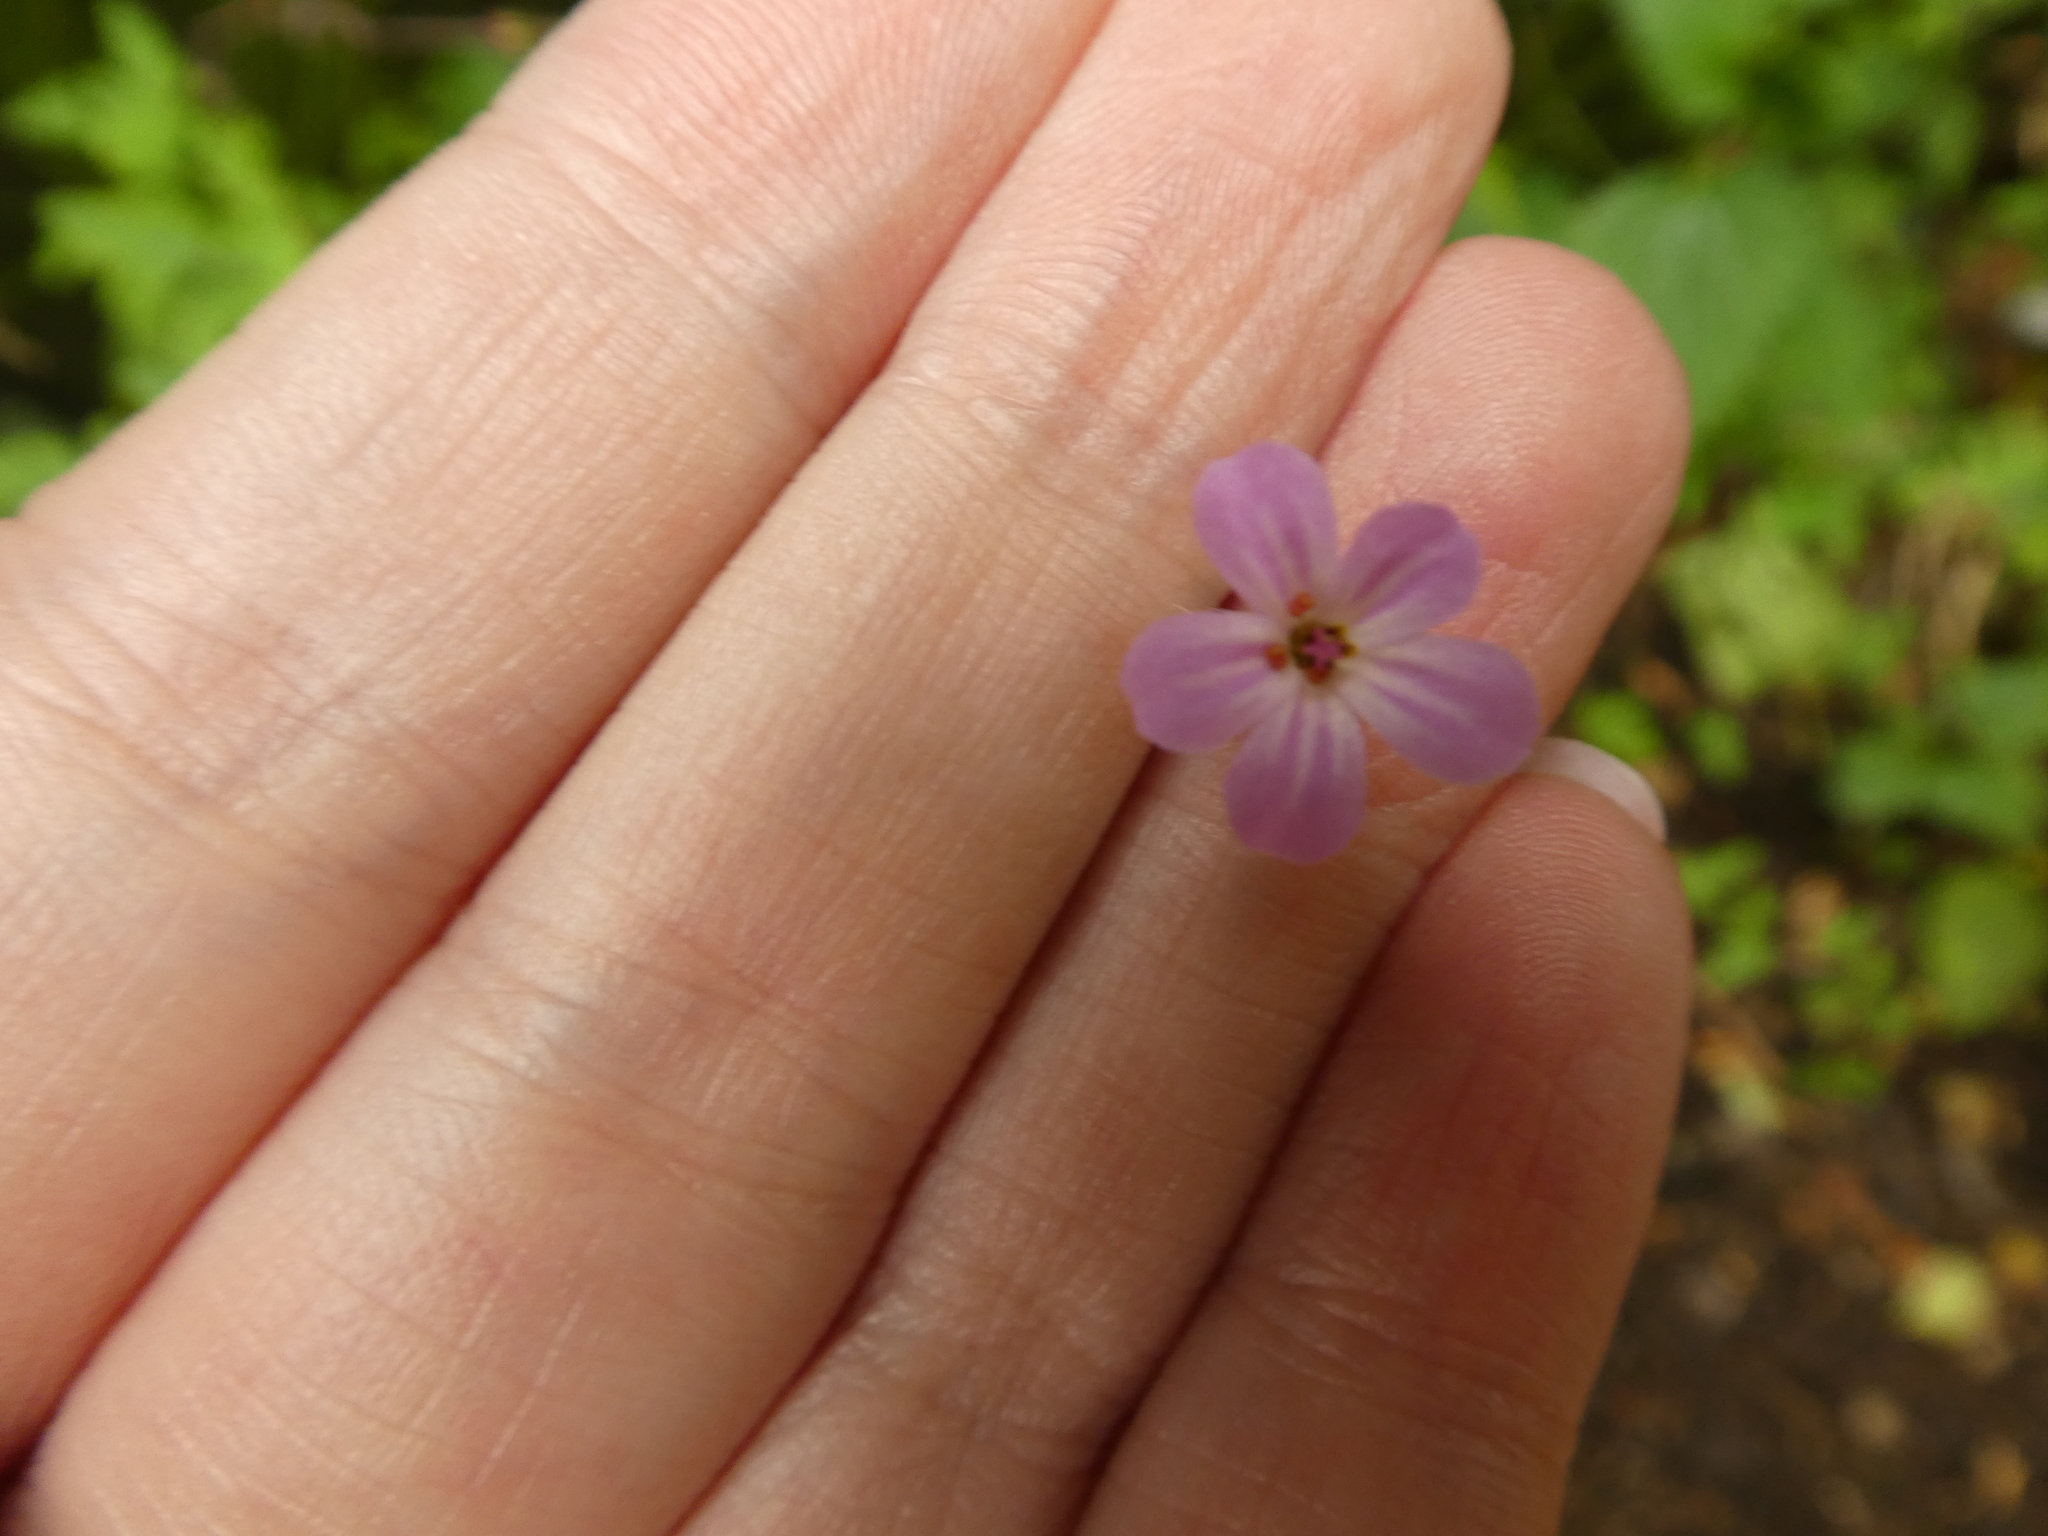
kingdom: Plantae
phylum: Tracheophyta
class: Magnoliopsida
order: Geraniales
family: Geraniaceae
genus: Geranium
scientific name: Geranium robertianum
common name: Herb-robert
